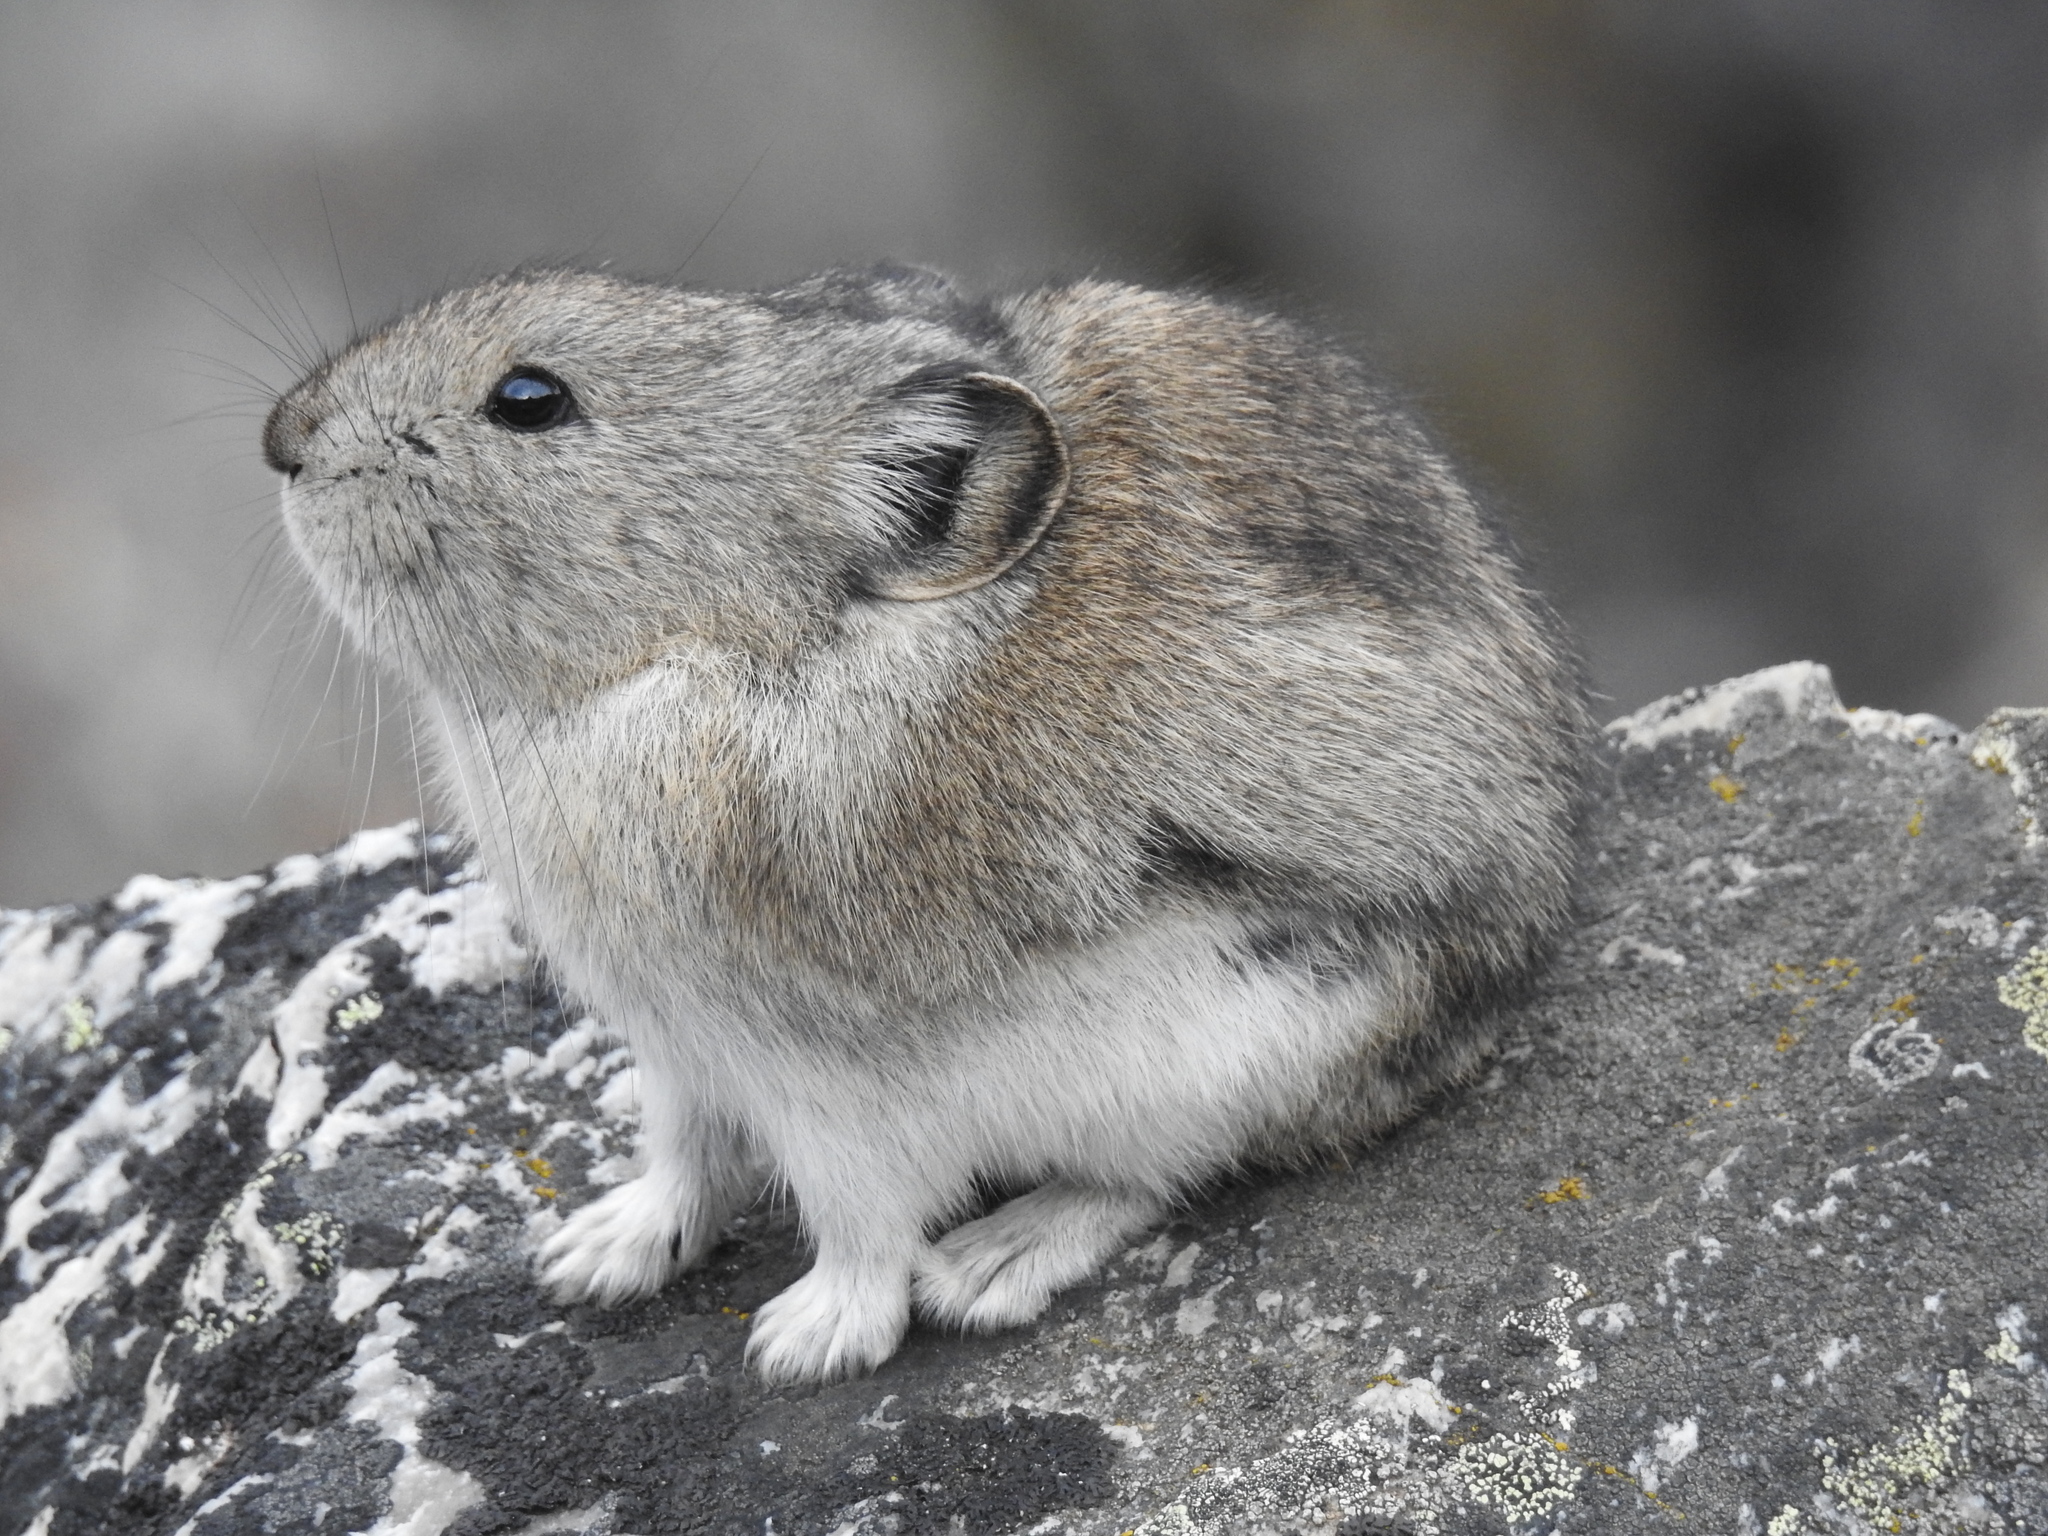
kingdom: Animalia
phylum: Chordata
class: Mammalia
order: Lagomorpha
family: Ochotonidae
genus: Ochotona
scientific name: Ochotona collaris
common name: Collared pika
